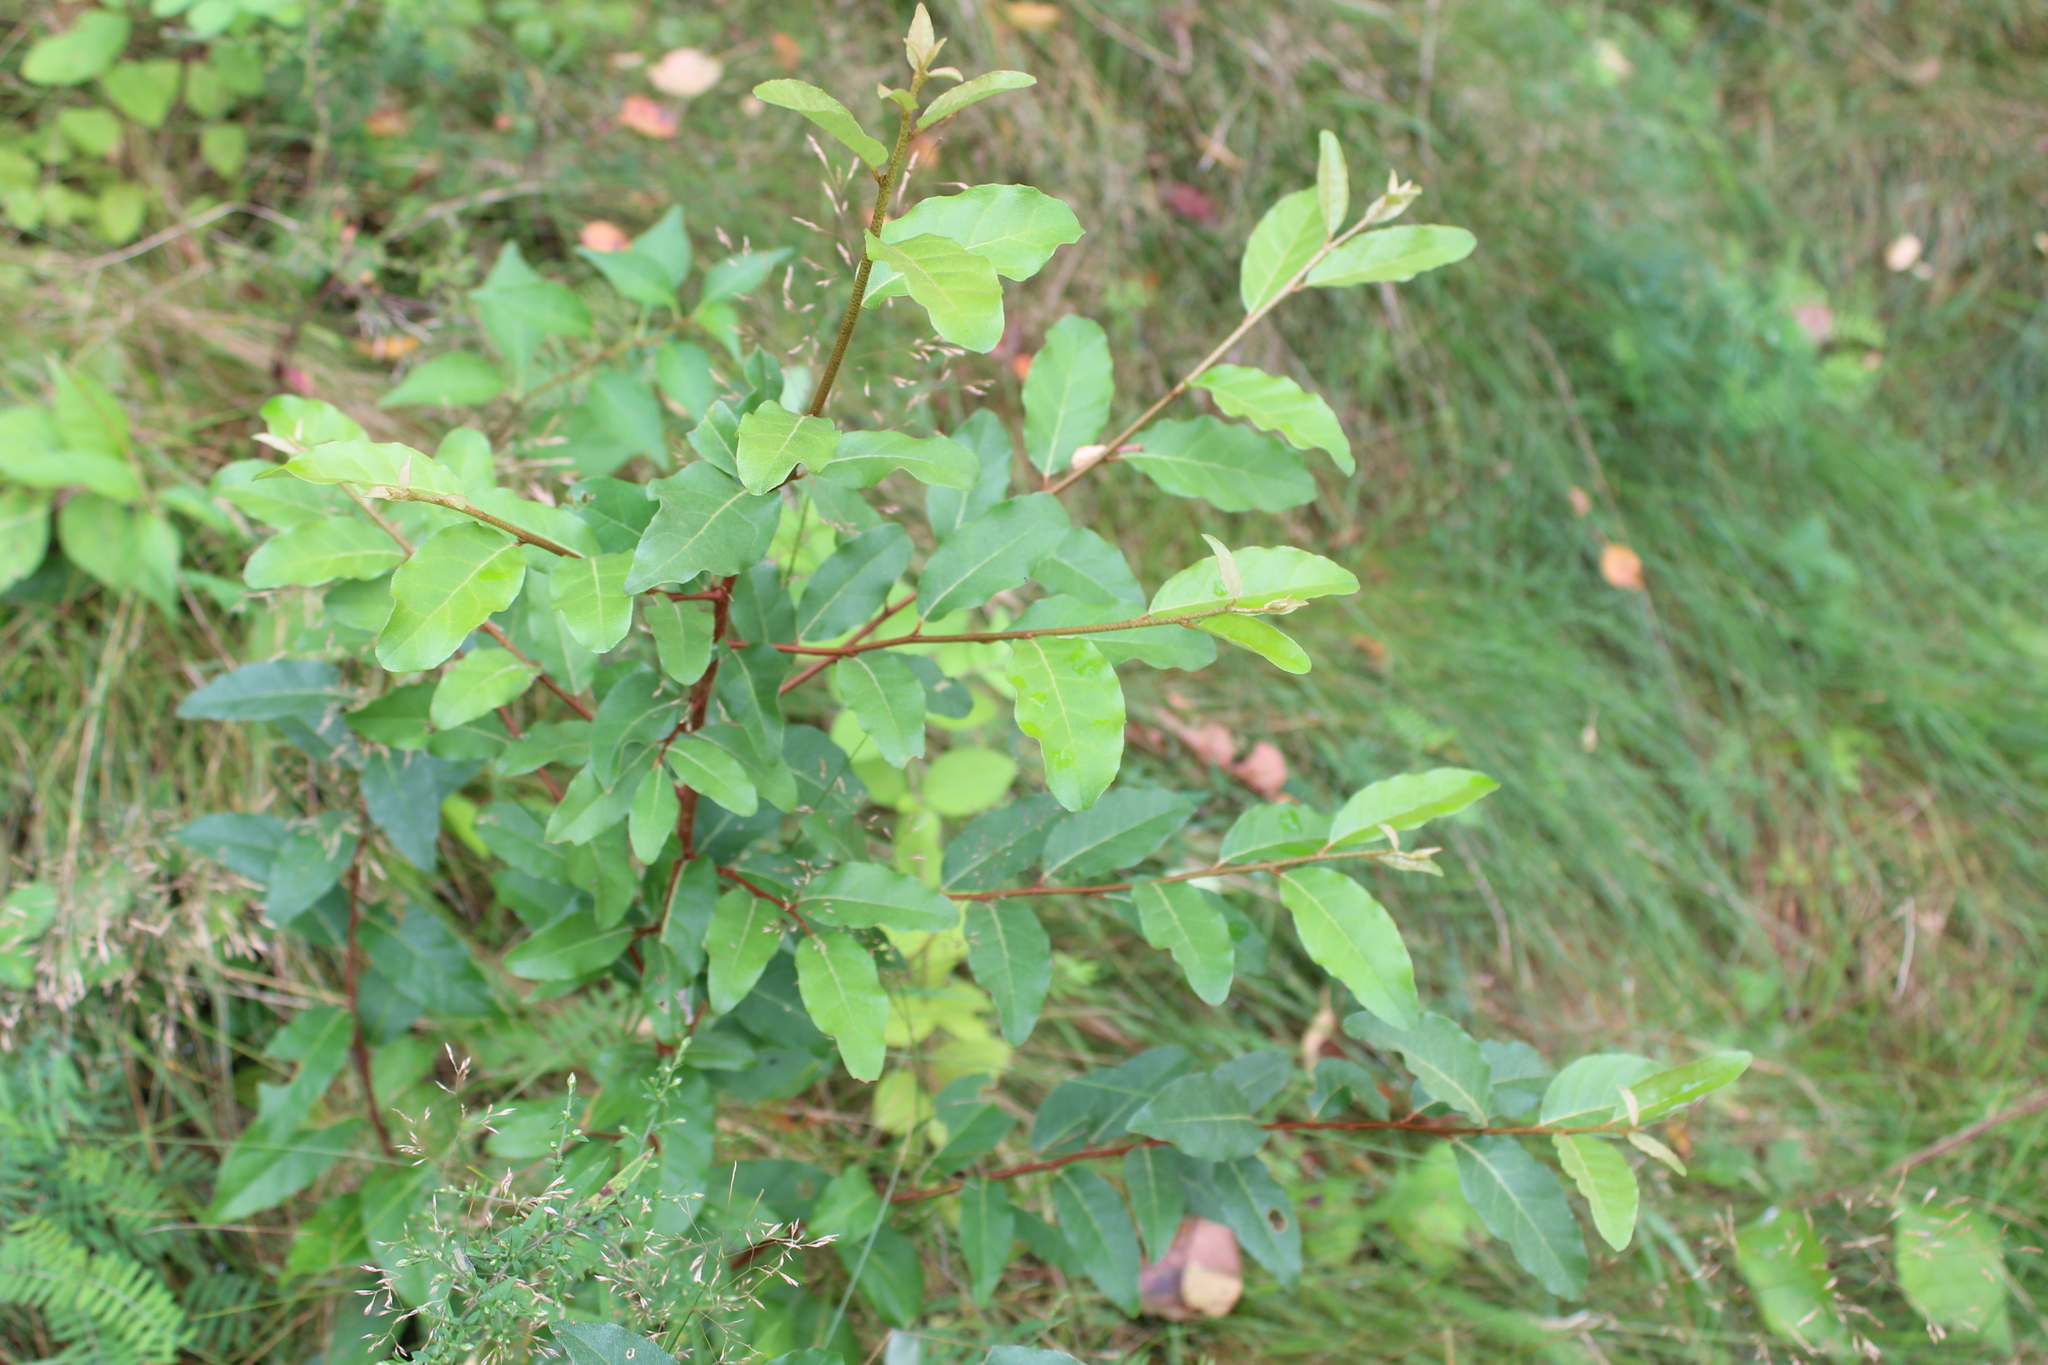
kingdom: Plantae
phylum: Tracheophyta
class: Magnoliopsida
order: Rosales
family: Elaeagnaceae
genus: Elaeagnus
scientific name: Elaeagnus umbellata
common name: Autumn olive
